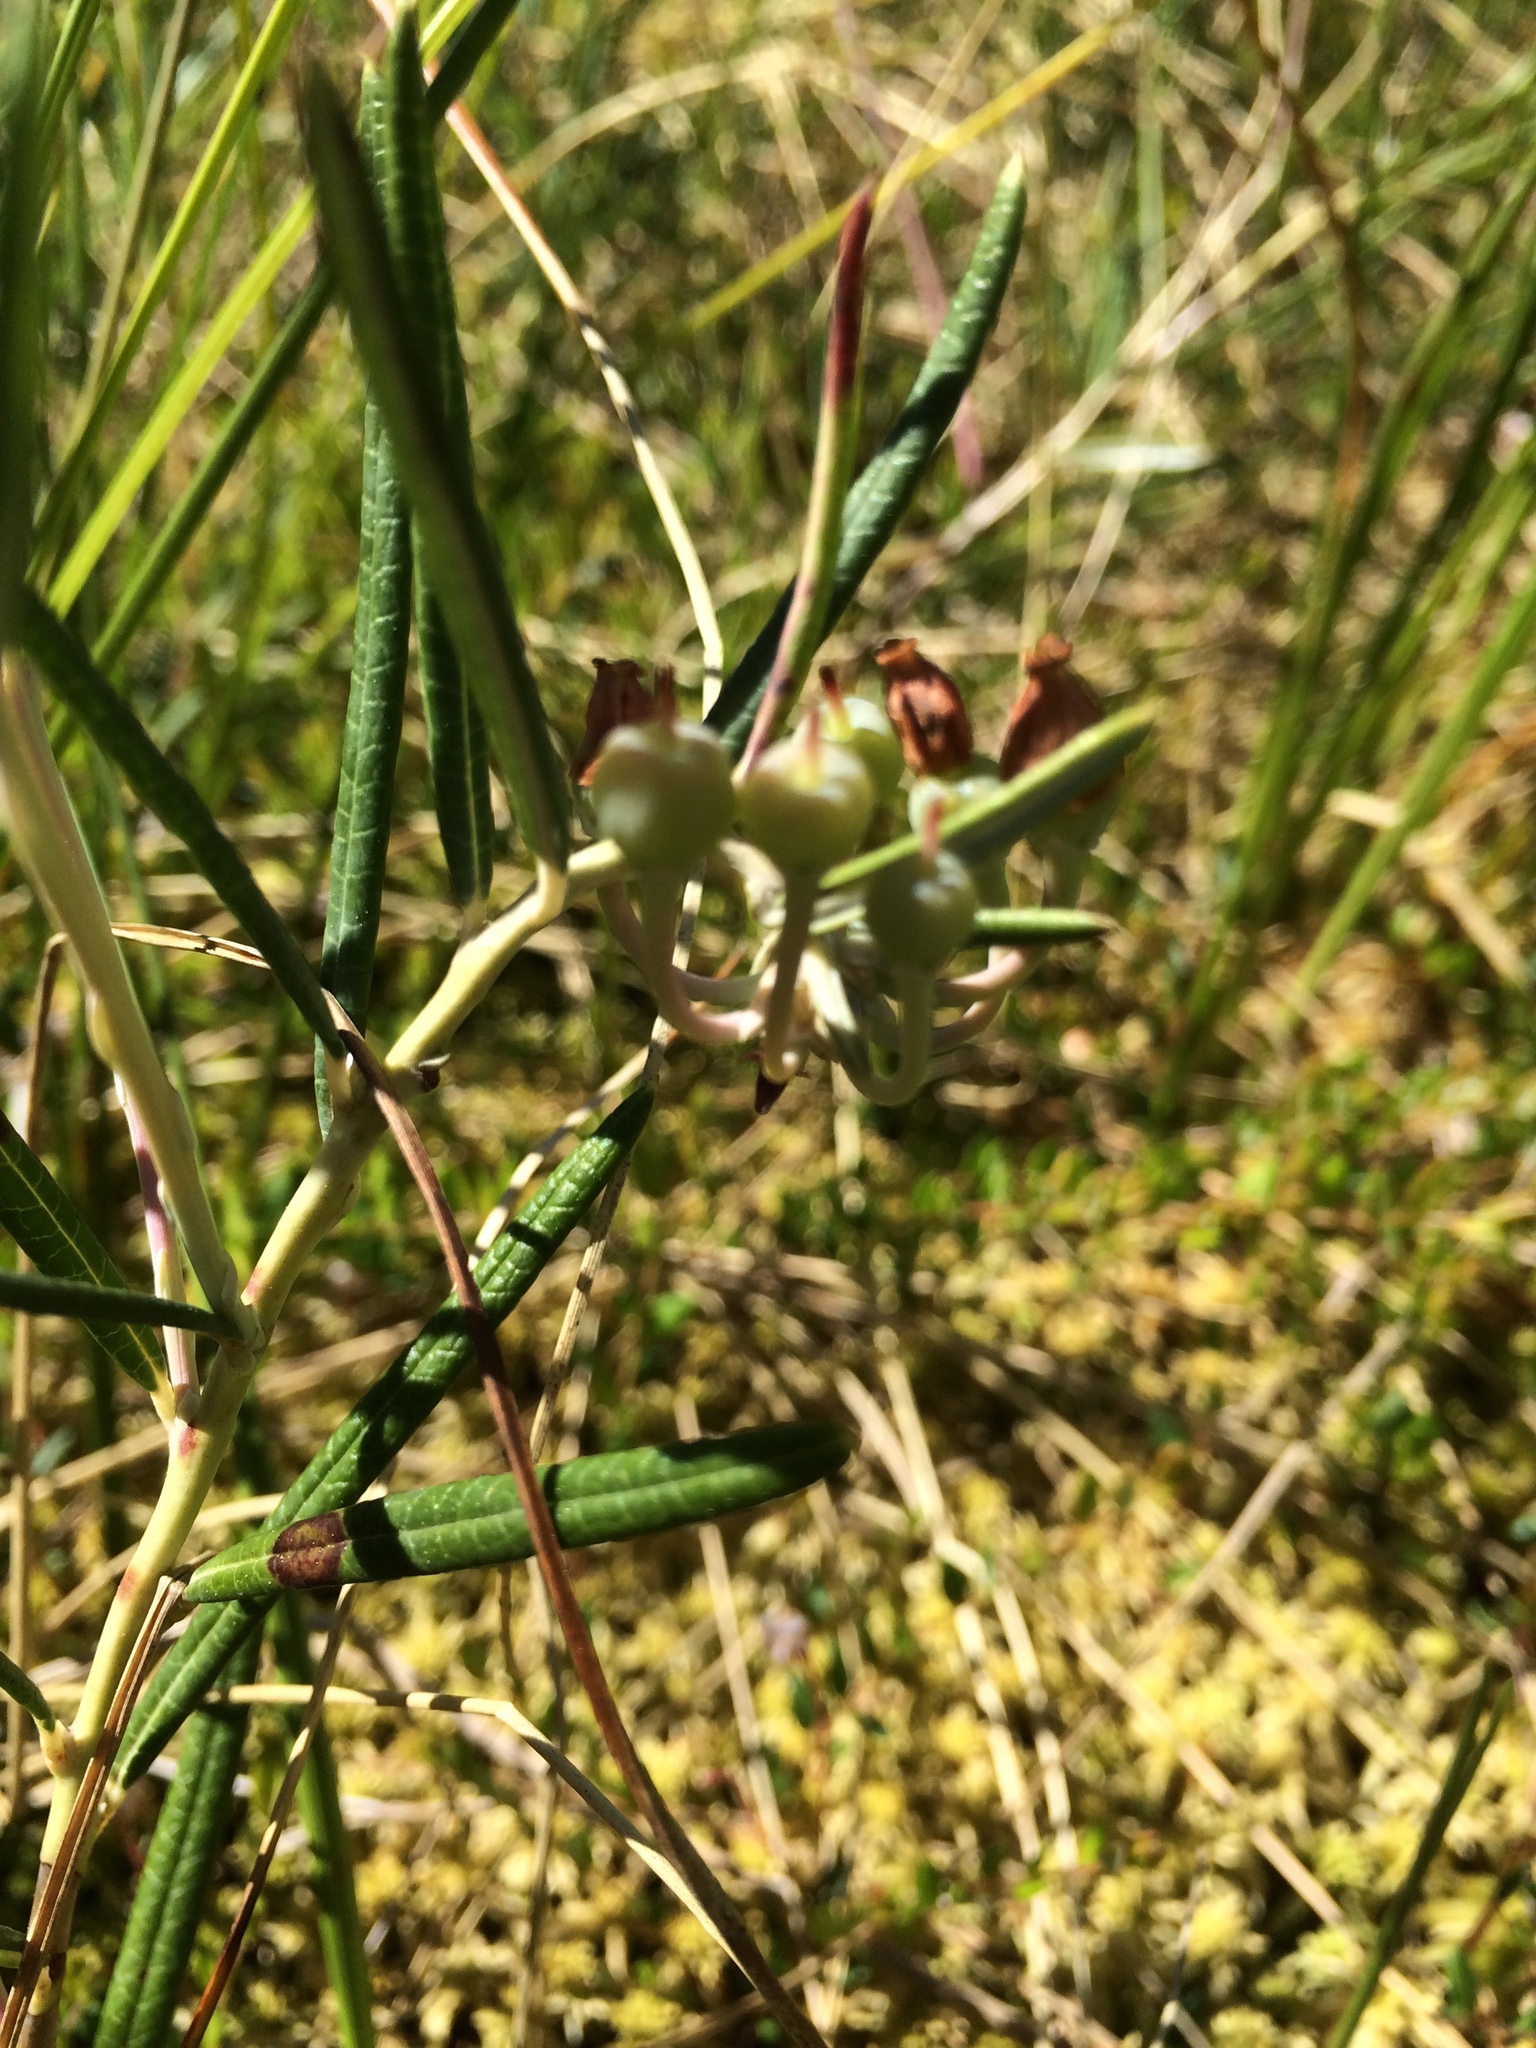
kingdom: Plantae
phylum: Tracheophyta
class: Magnoliopsida
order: Ericales
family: Ericaceae
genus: Andromeda
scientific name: Andromeda polifolia
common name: Bog-rosemary
